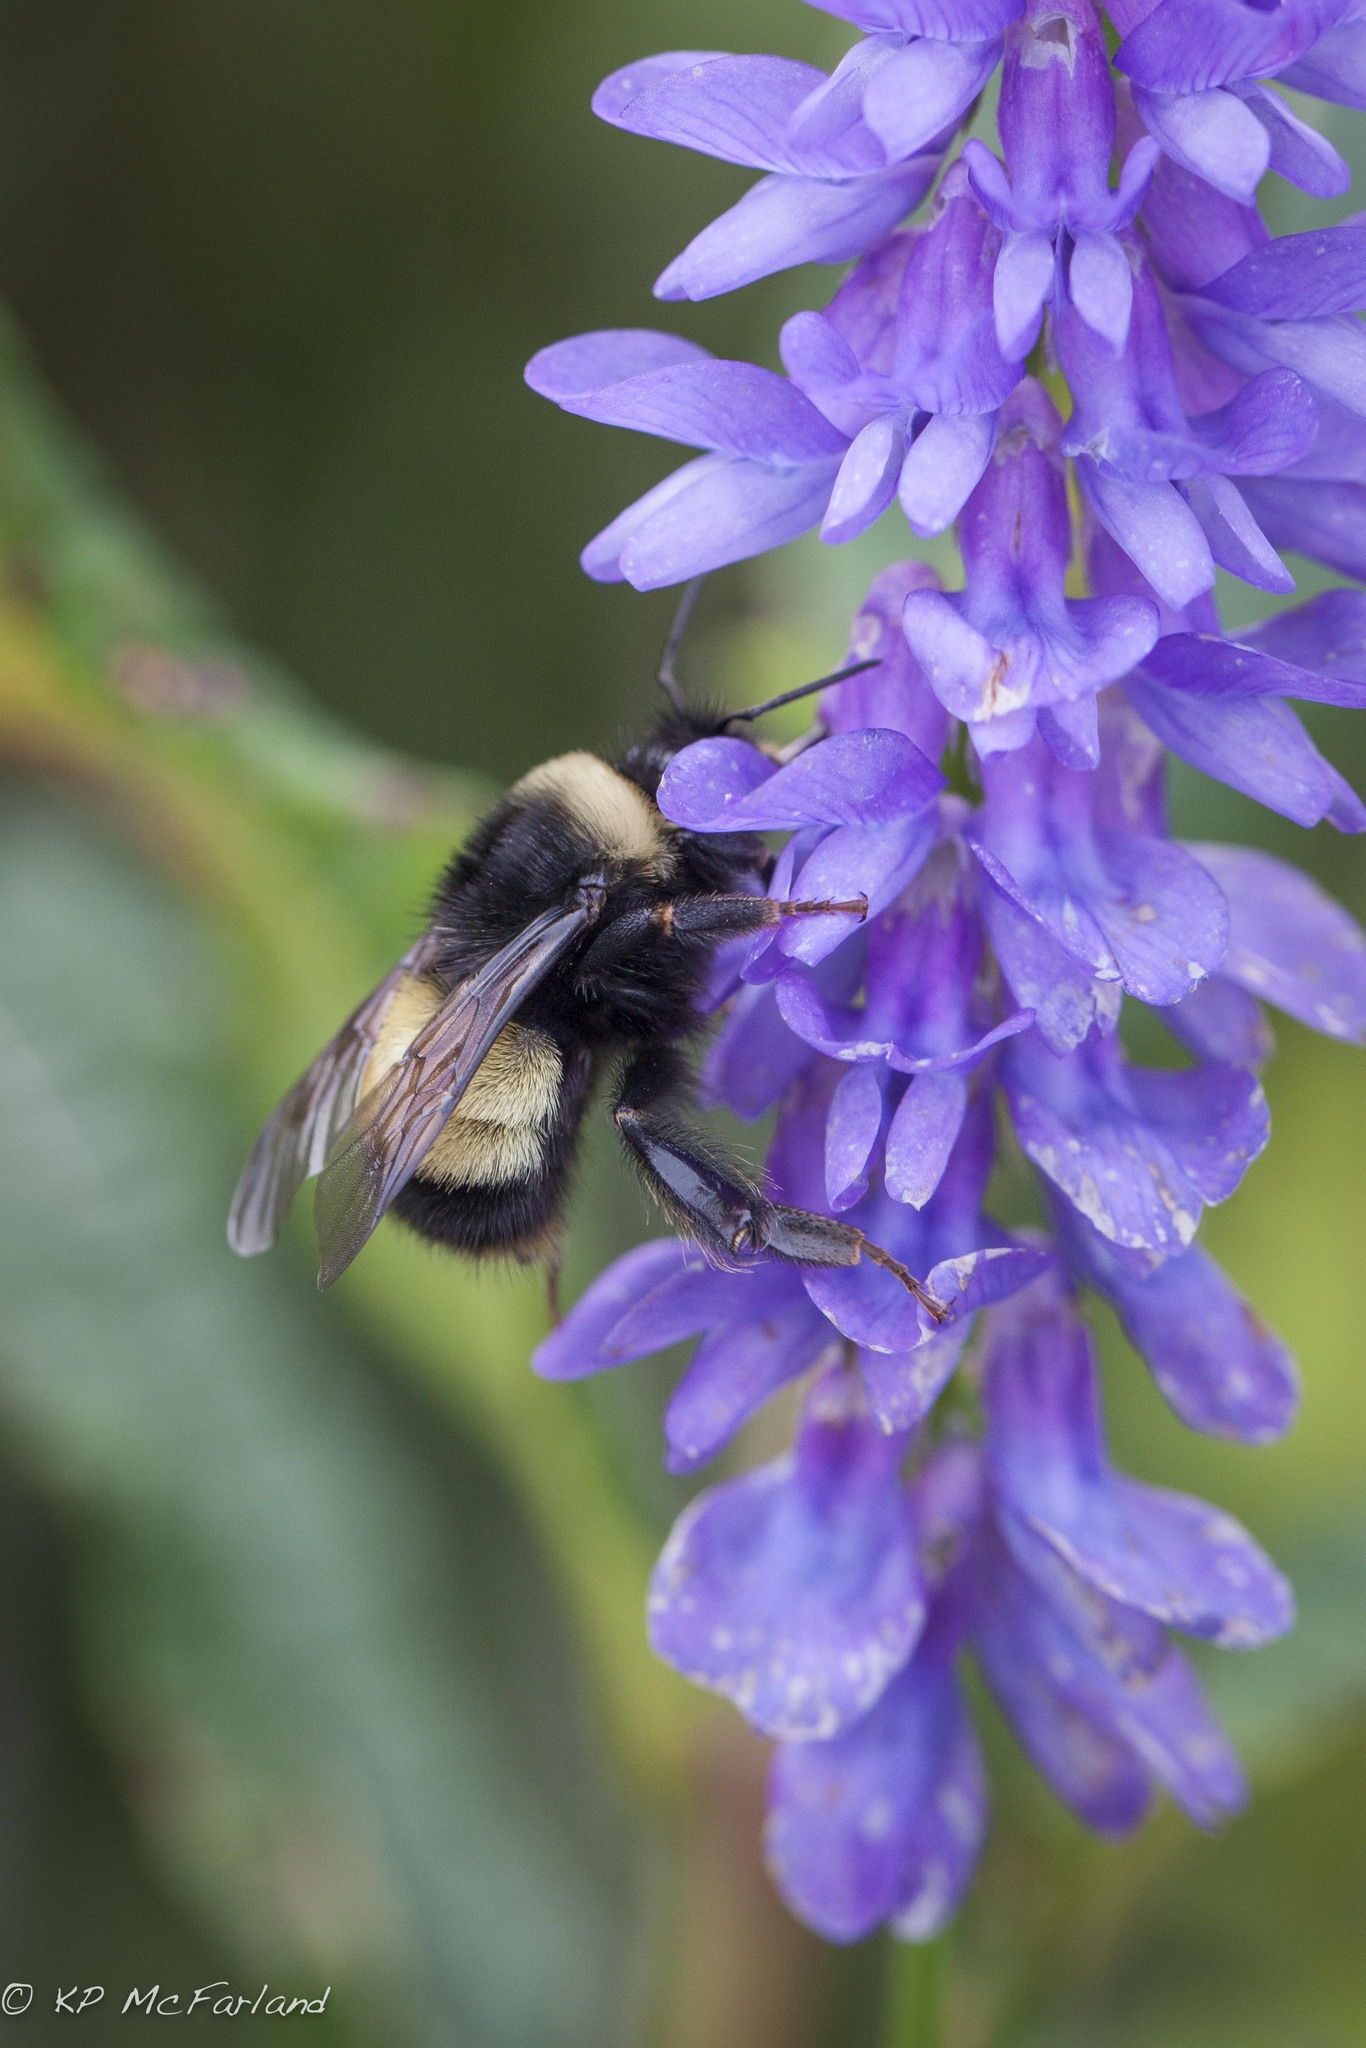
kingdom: Animalia
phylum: Arthropoda
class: Insecta
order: Hymenoptera
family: Apidae
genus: Bombus
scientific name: Bombus terricola
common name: Yellow-banded bumble bee
